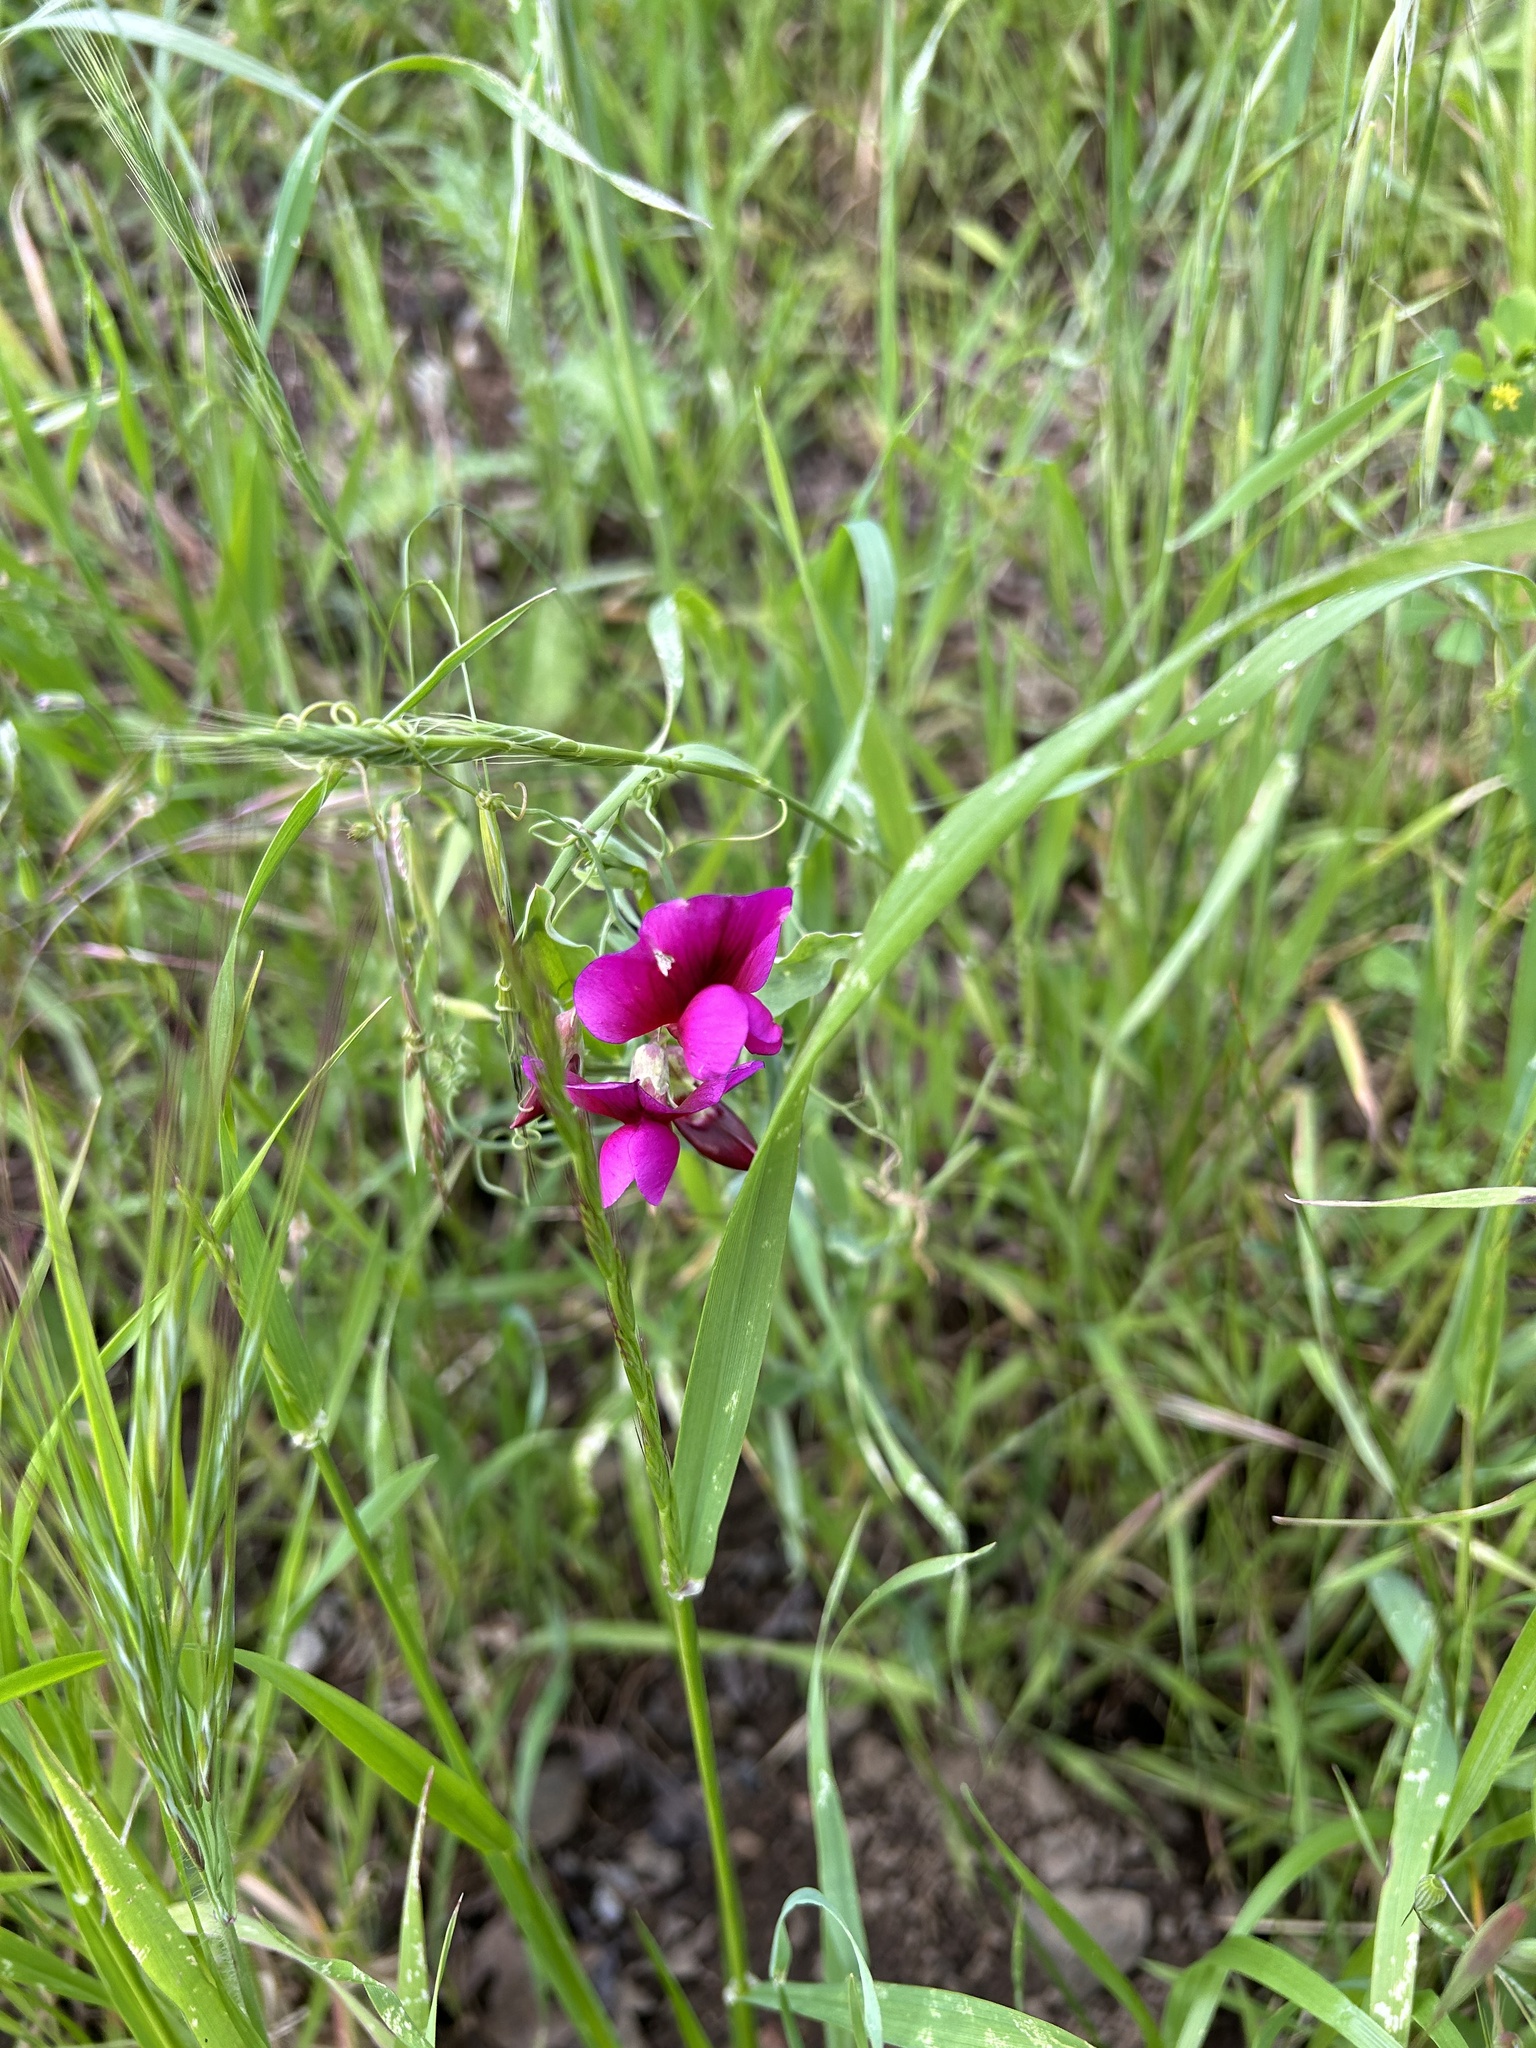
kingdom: Plantae
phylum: Tracheophyta
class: Magnoliopsida
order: Fabales
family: Fabaceae
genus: Lathyrus
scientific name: Lathyrus tingitanus
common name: Tangier pea
